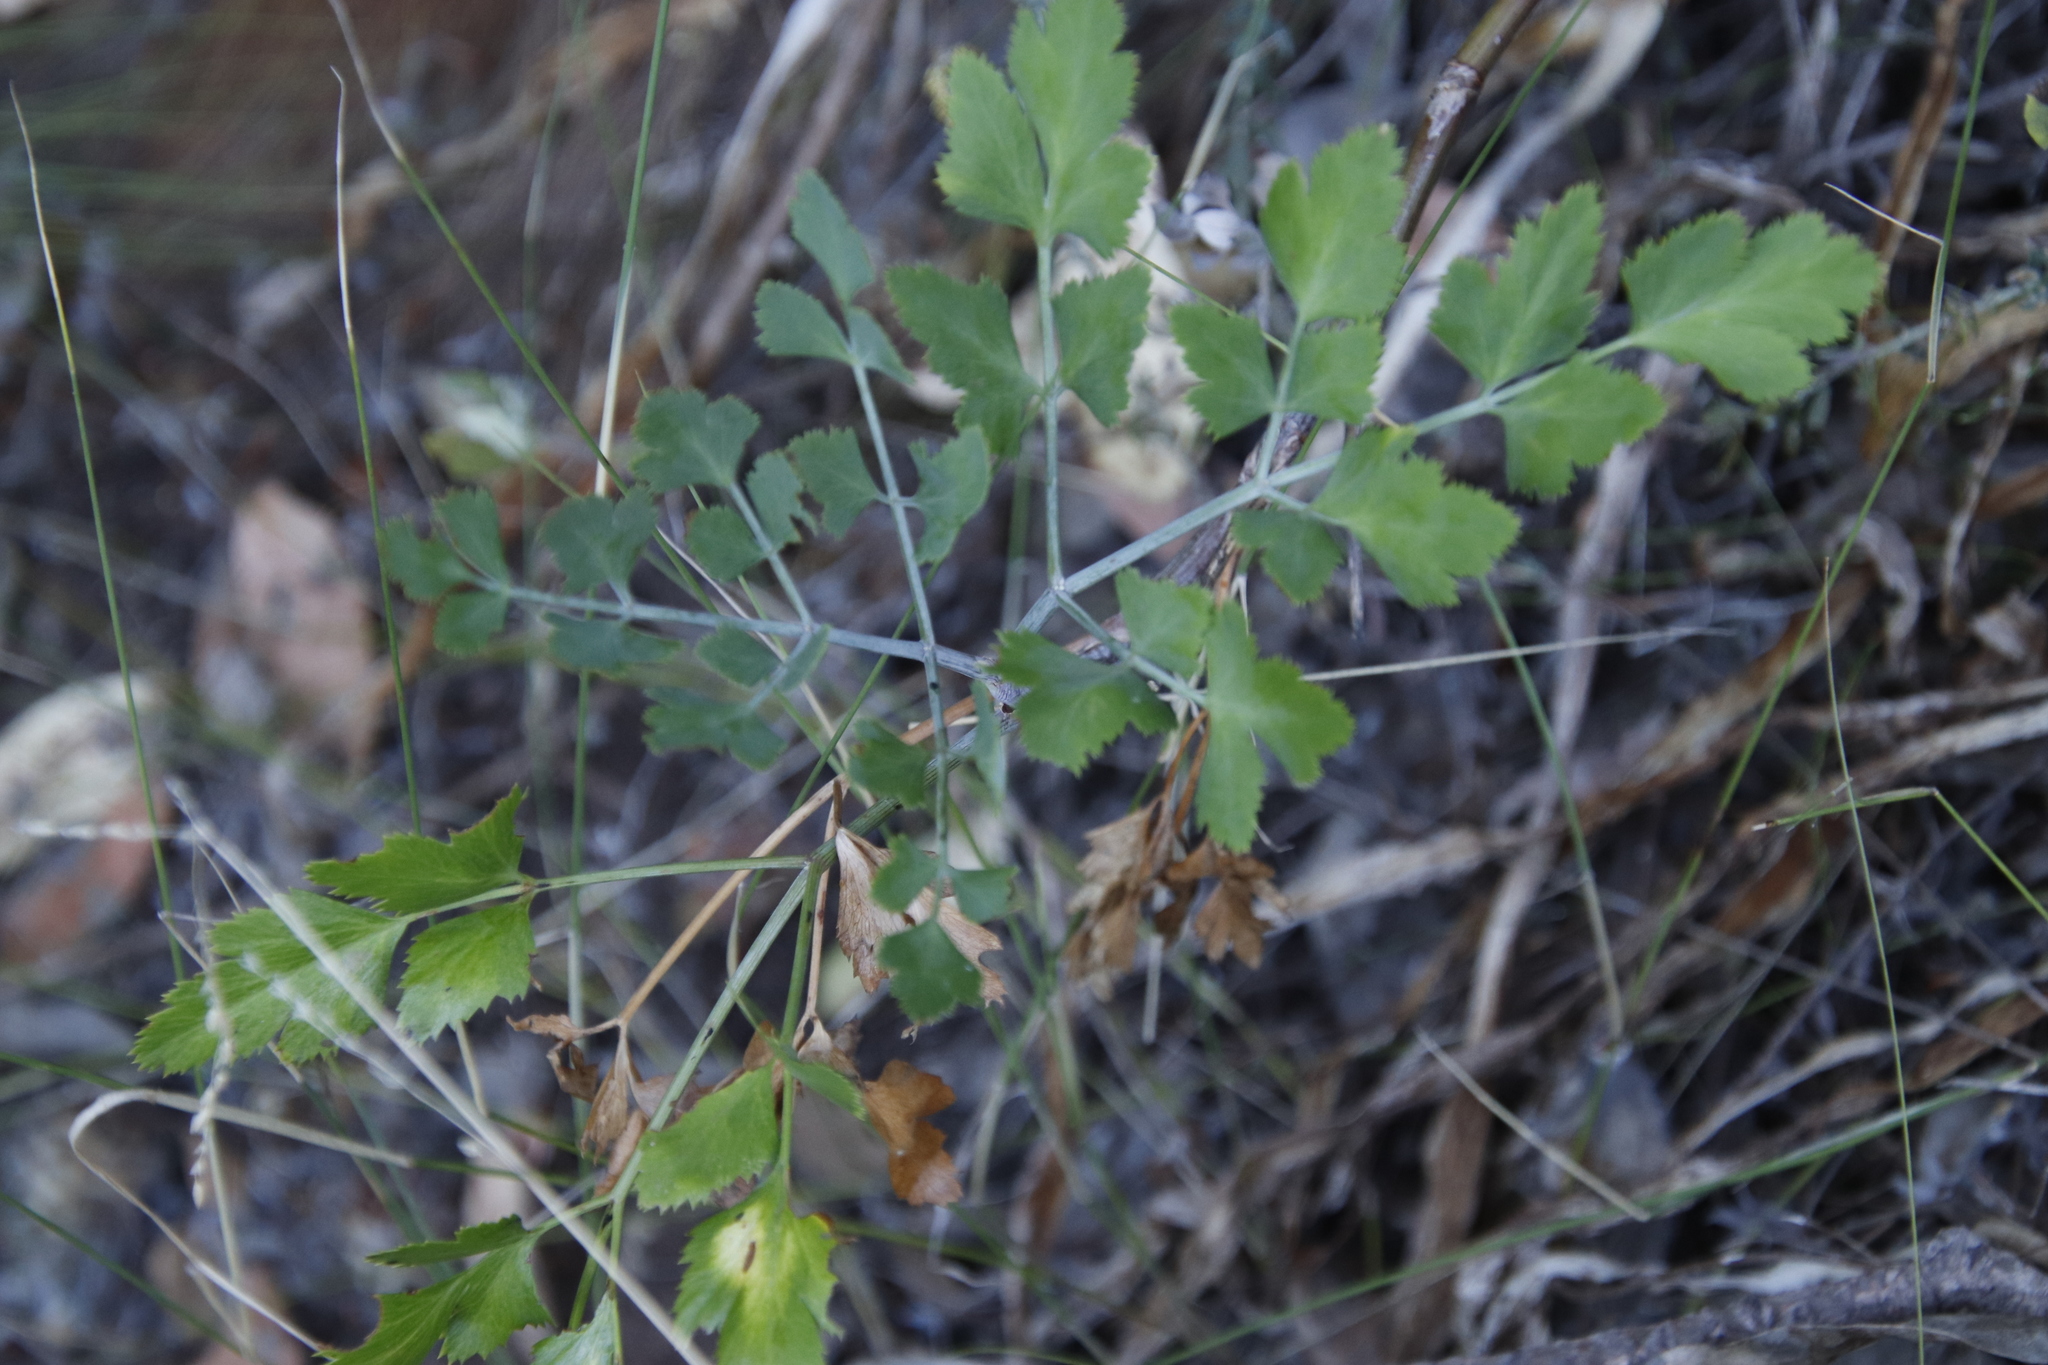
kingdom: Plantae
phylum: Tracheophyta
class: Magnoliopsida
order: Apiales
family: Apiaceae
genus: Notobubon
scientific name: Notobubon galbanum
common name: Blisterbush
